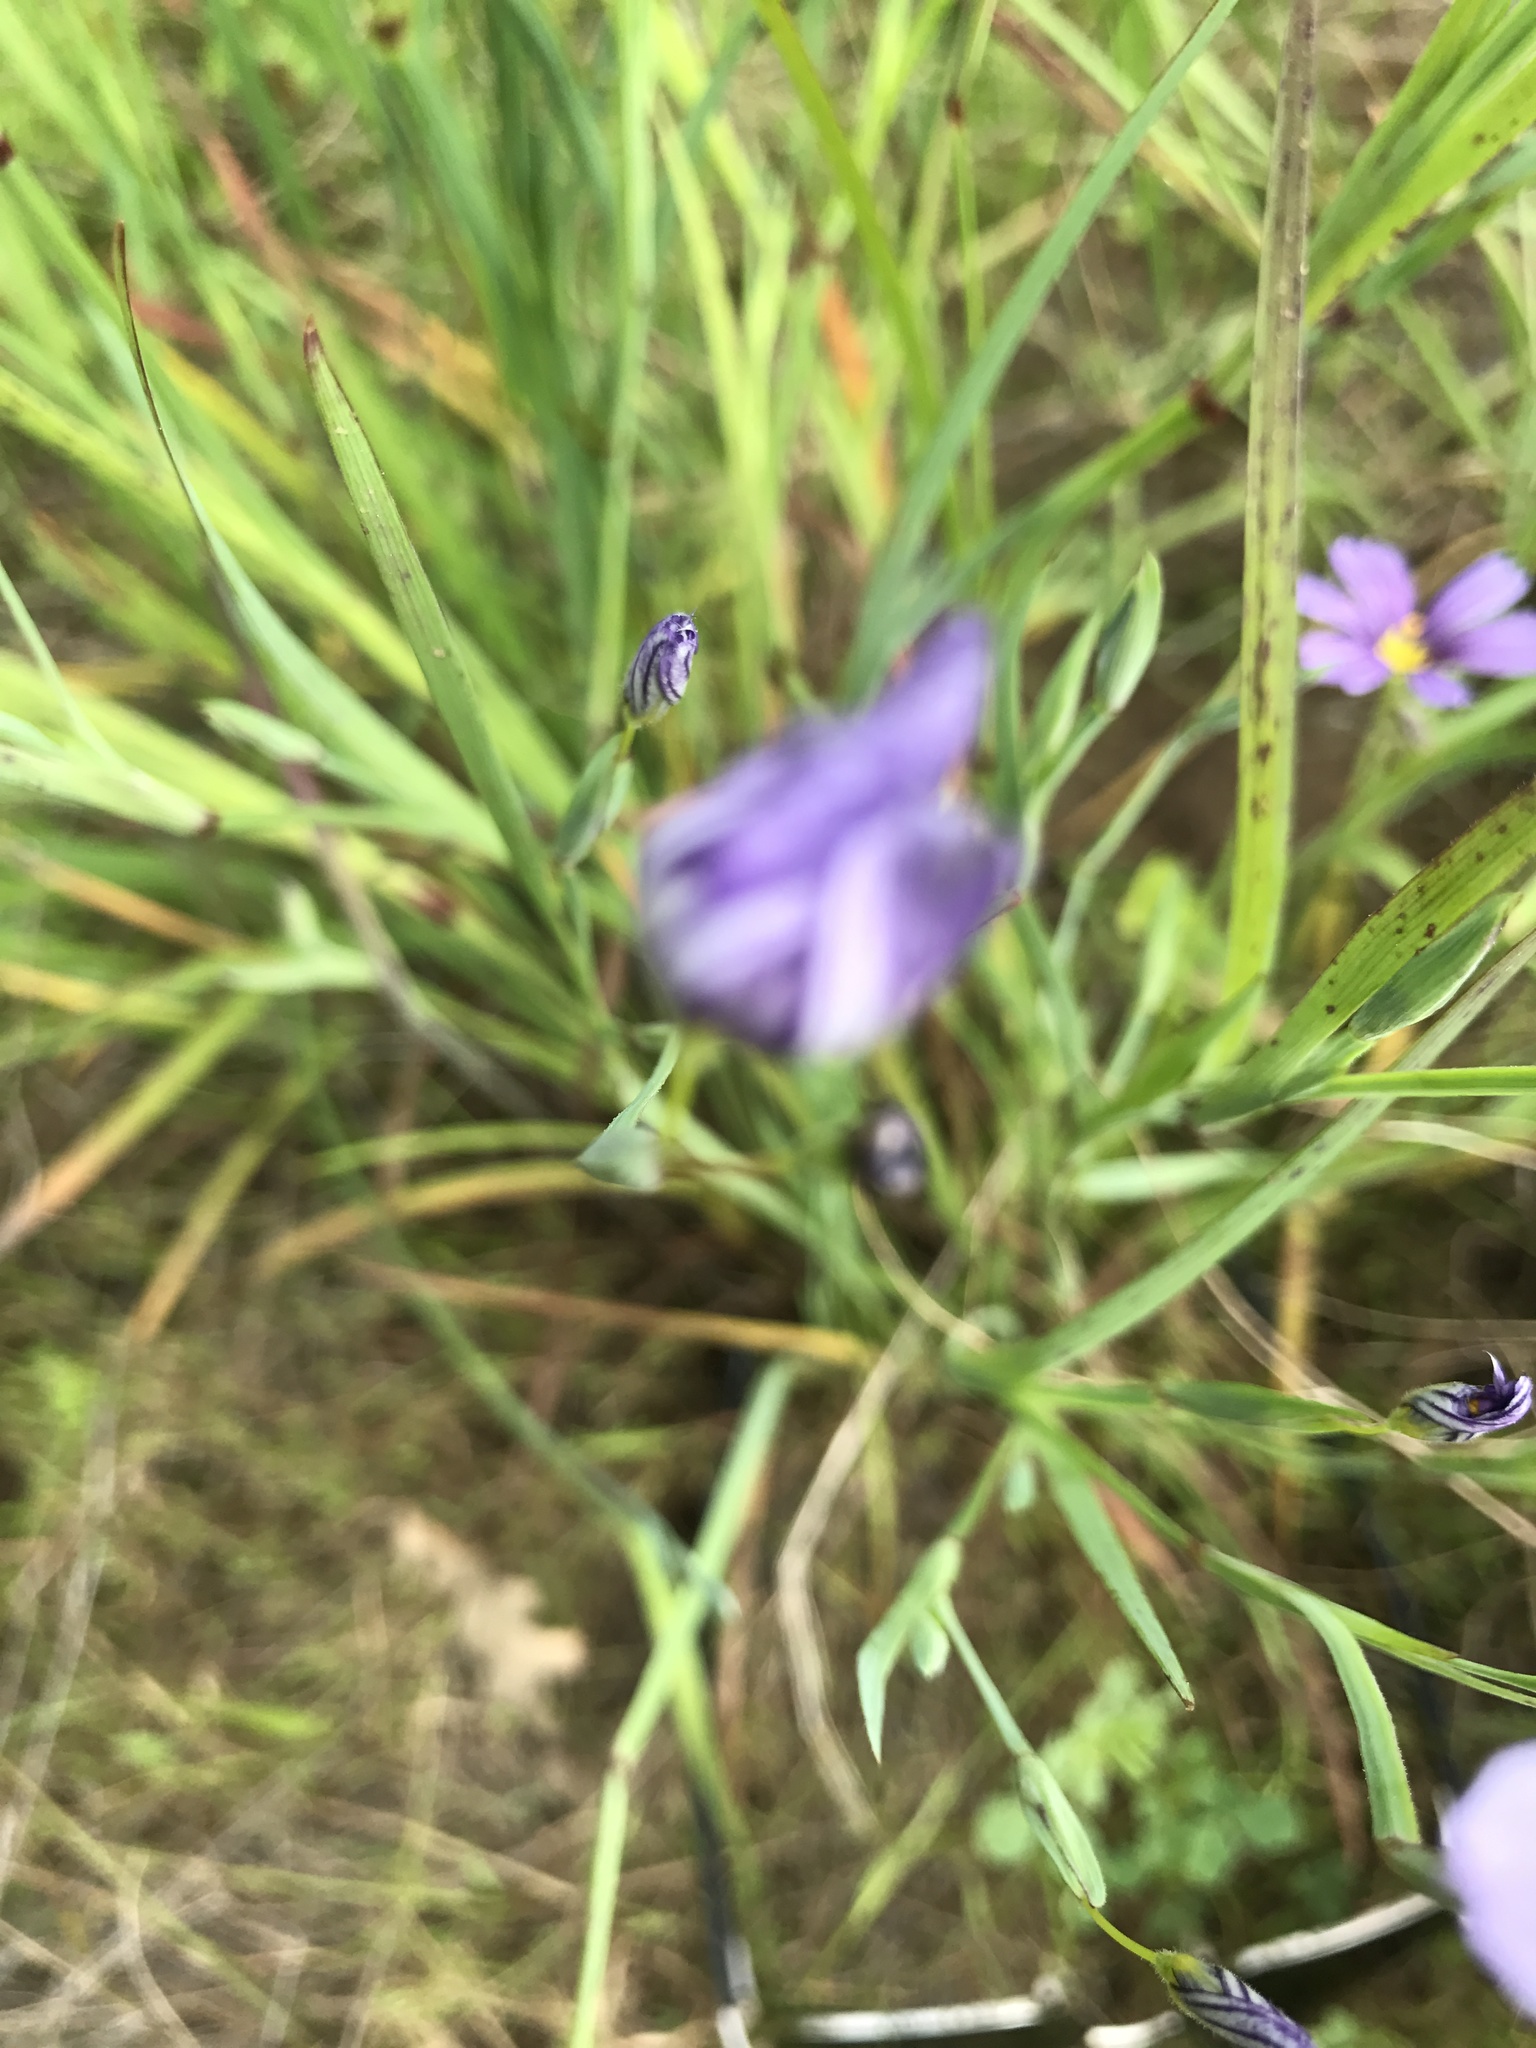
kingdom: Plantae
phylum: Tracheophyta
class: Liliopsida
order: Asparagales
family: Iridaceae
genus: Sisyrinchium
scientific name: Sisyrinchium bellum
